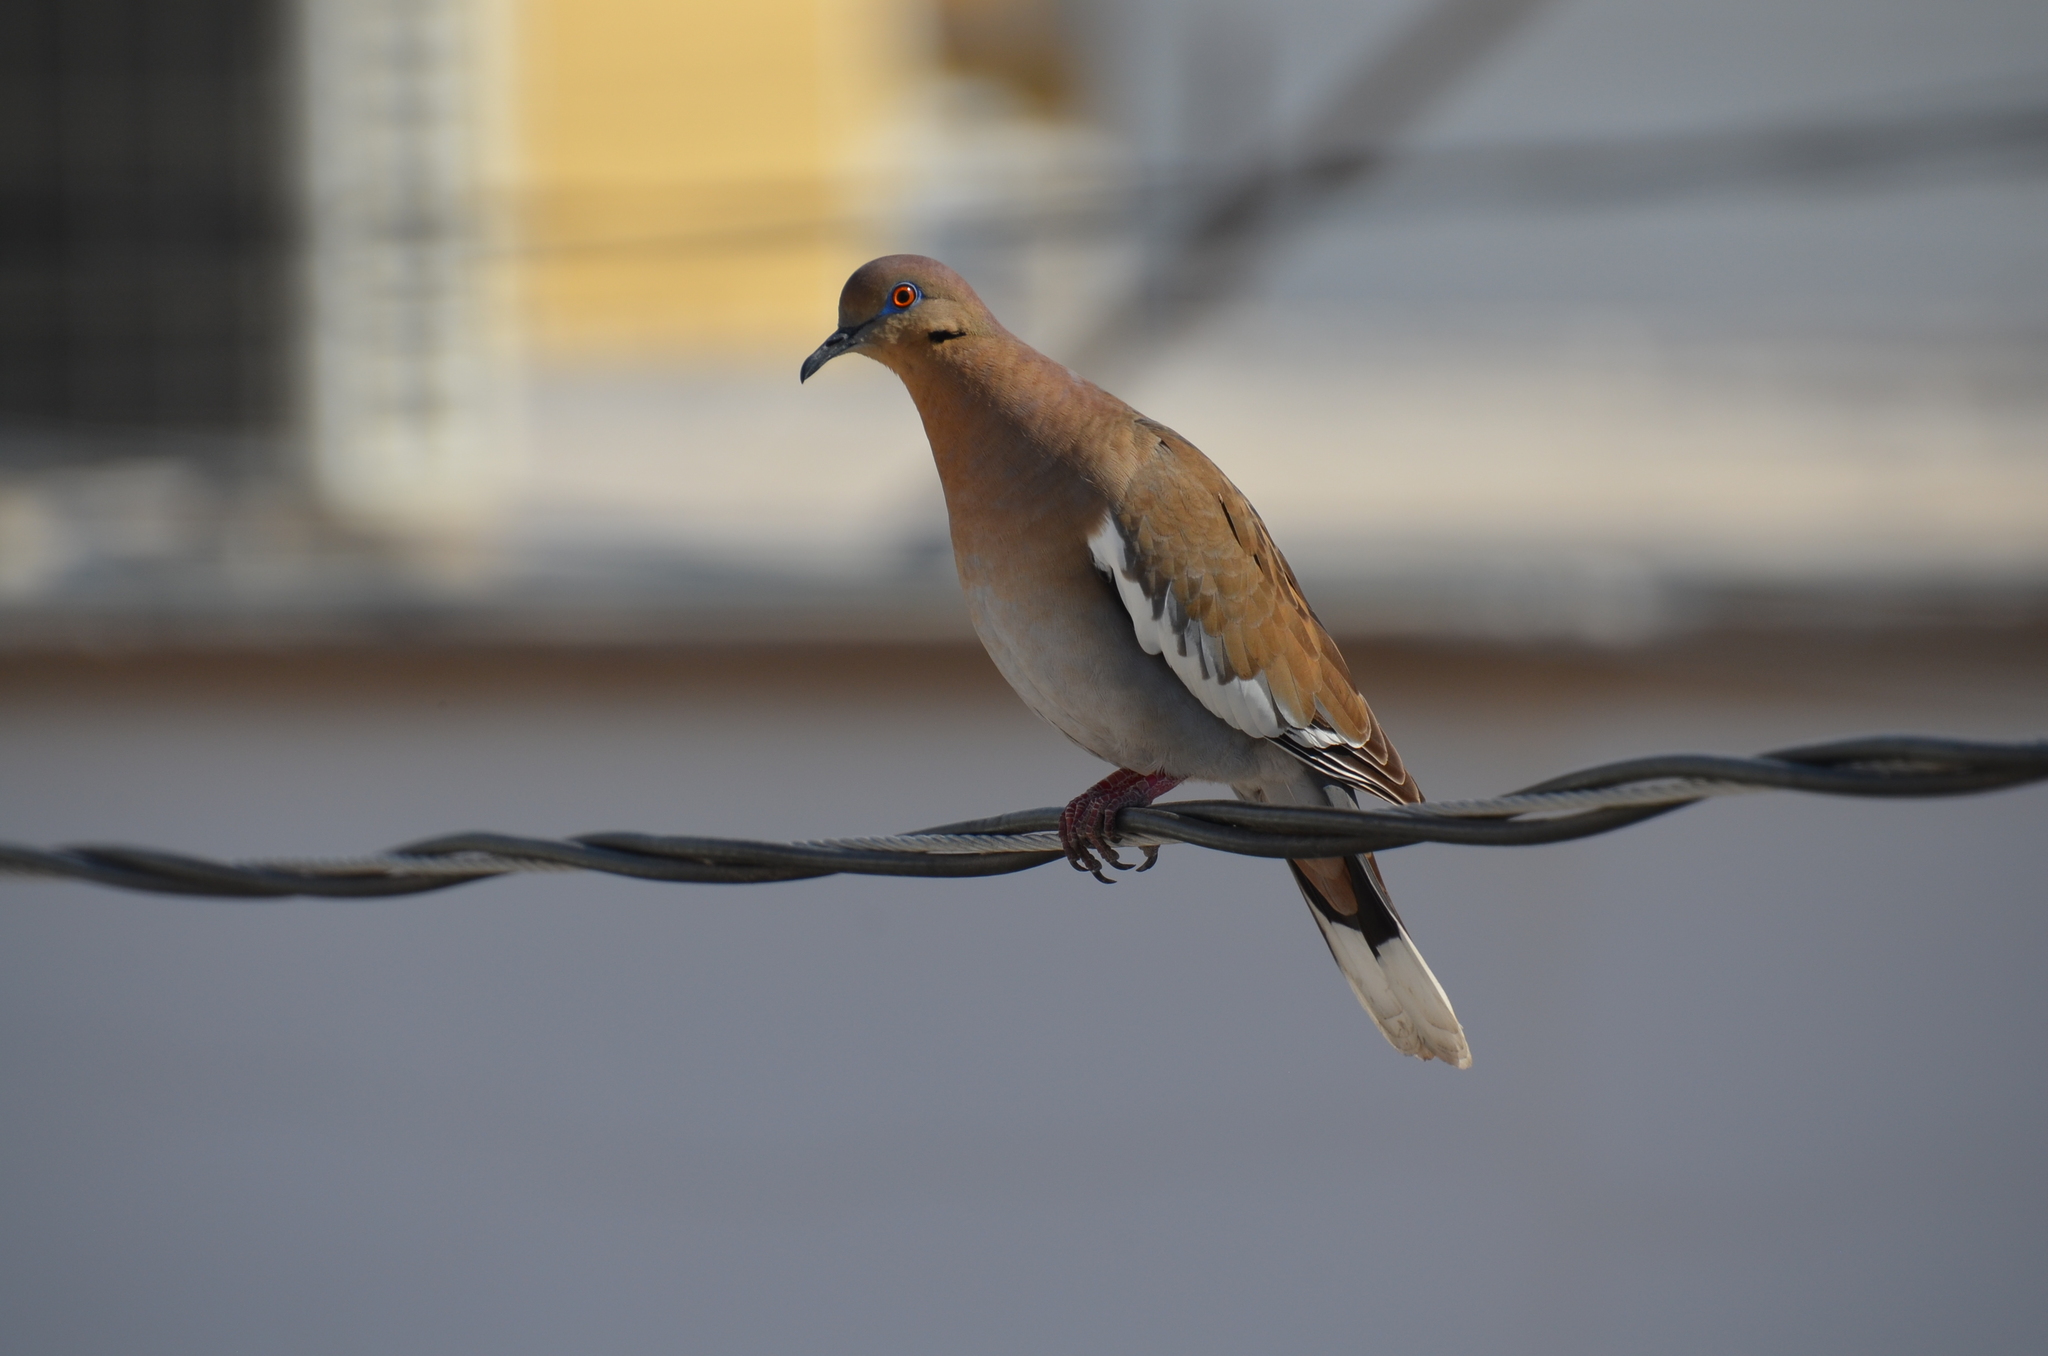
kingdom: Animalia
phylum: Chordata
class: Aves
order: Columbiformes
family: Columbidae
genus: Zenaida
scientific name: Zenaida asiatica
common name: White-winged dove
